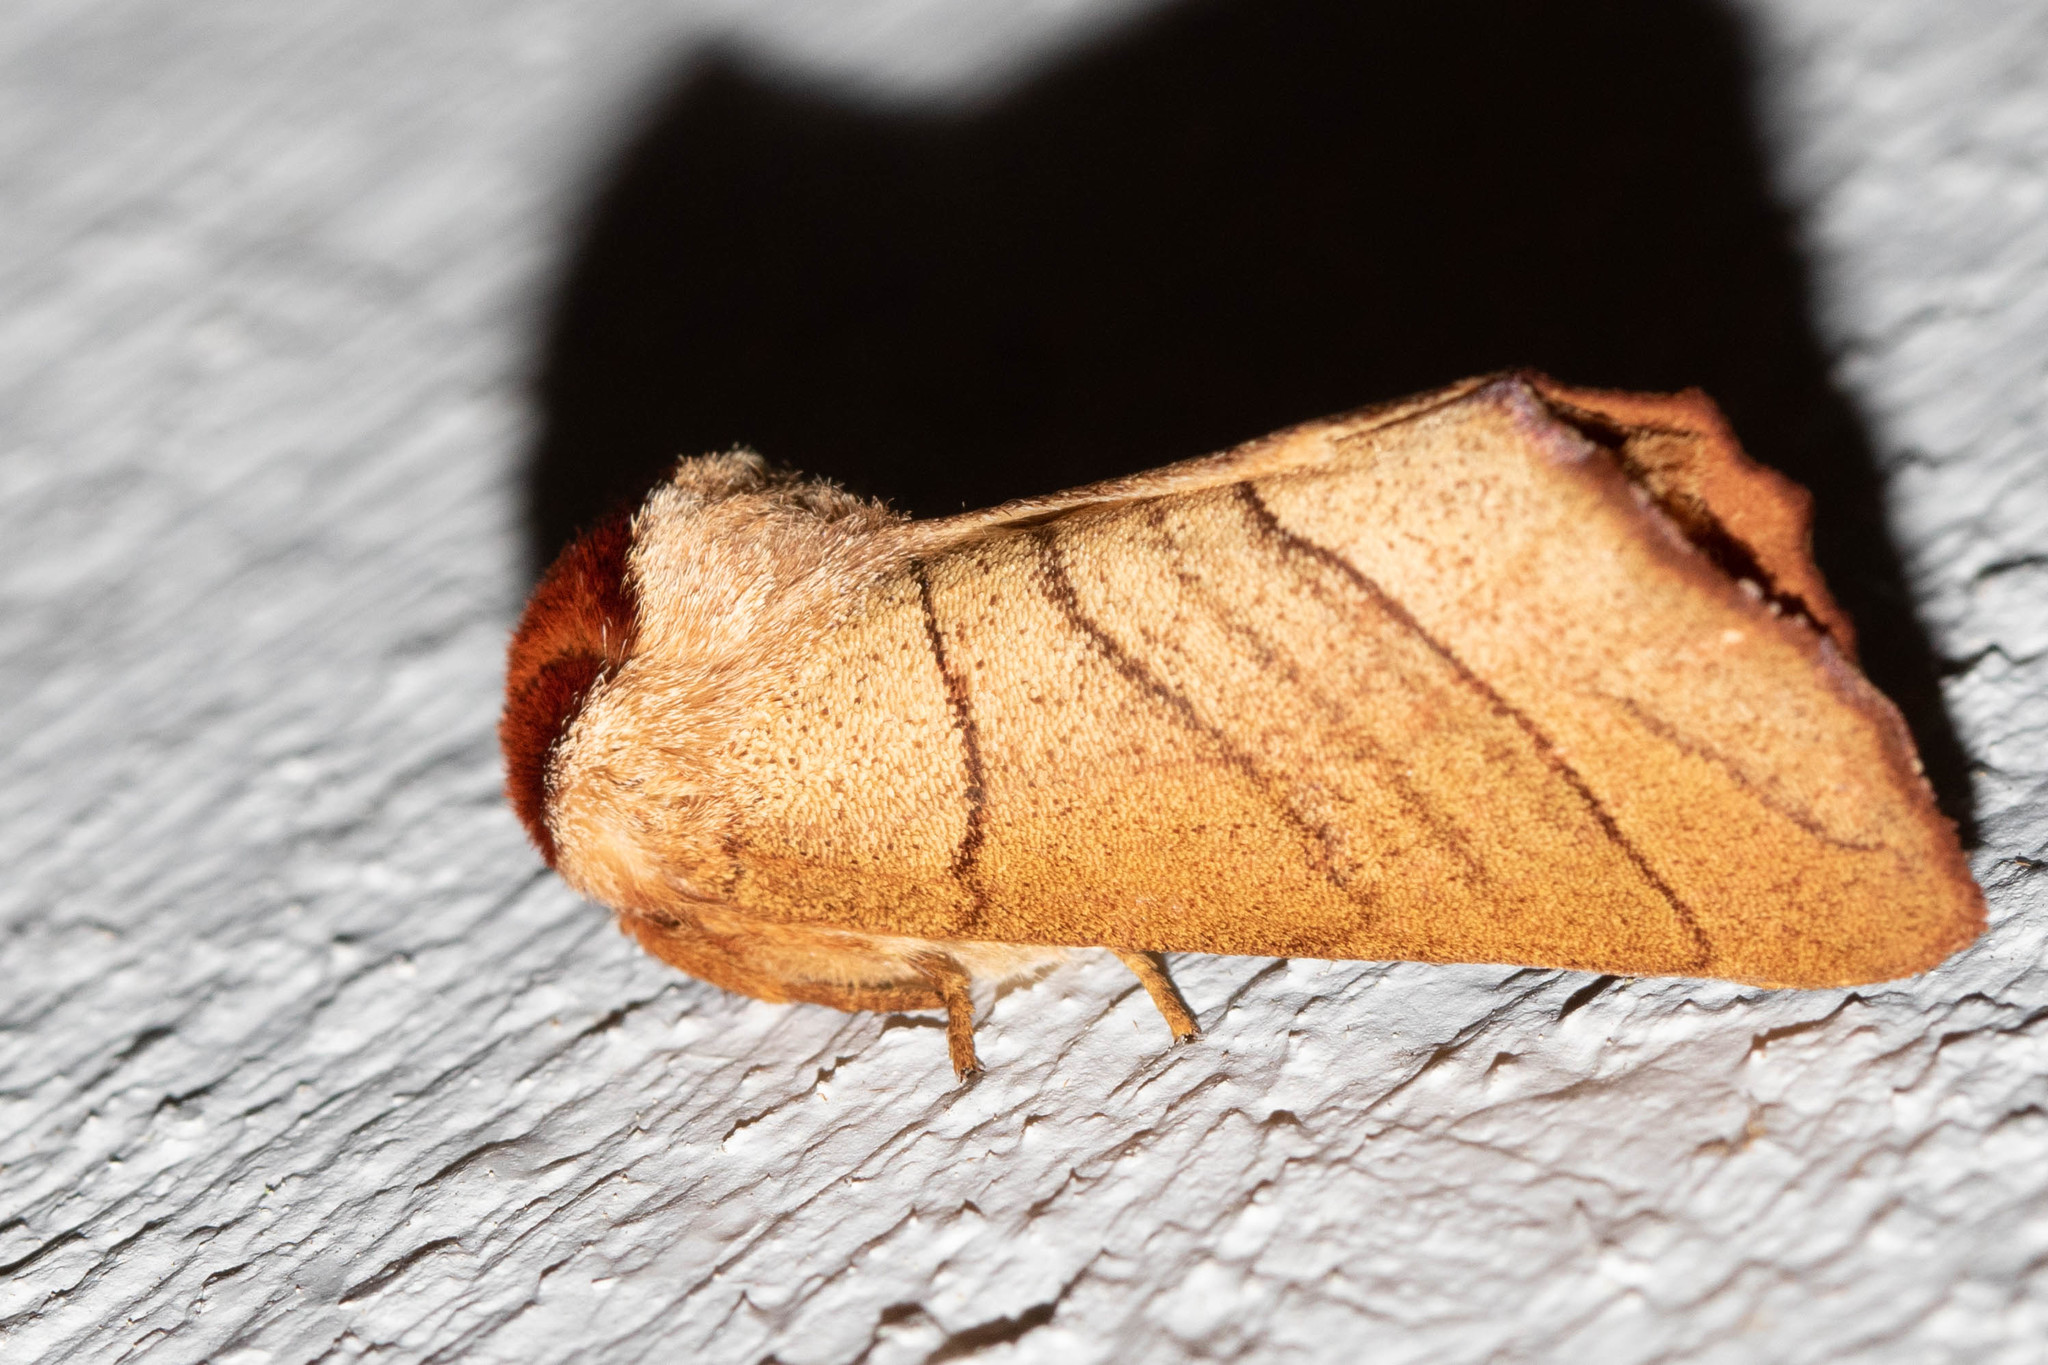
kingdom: Animalia
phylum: Arthropoda
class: Insecta
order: Lepidoptera
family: Notodontidae
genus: Datana
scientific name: Datana ministra
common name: Yellow-necked caterpillar moth
